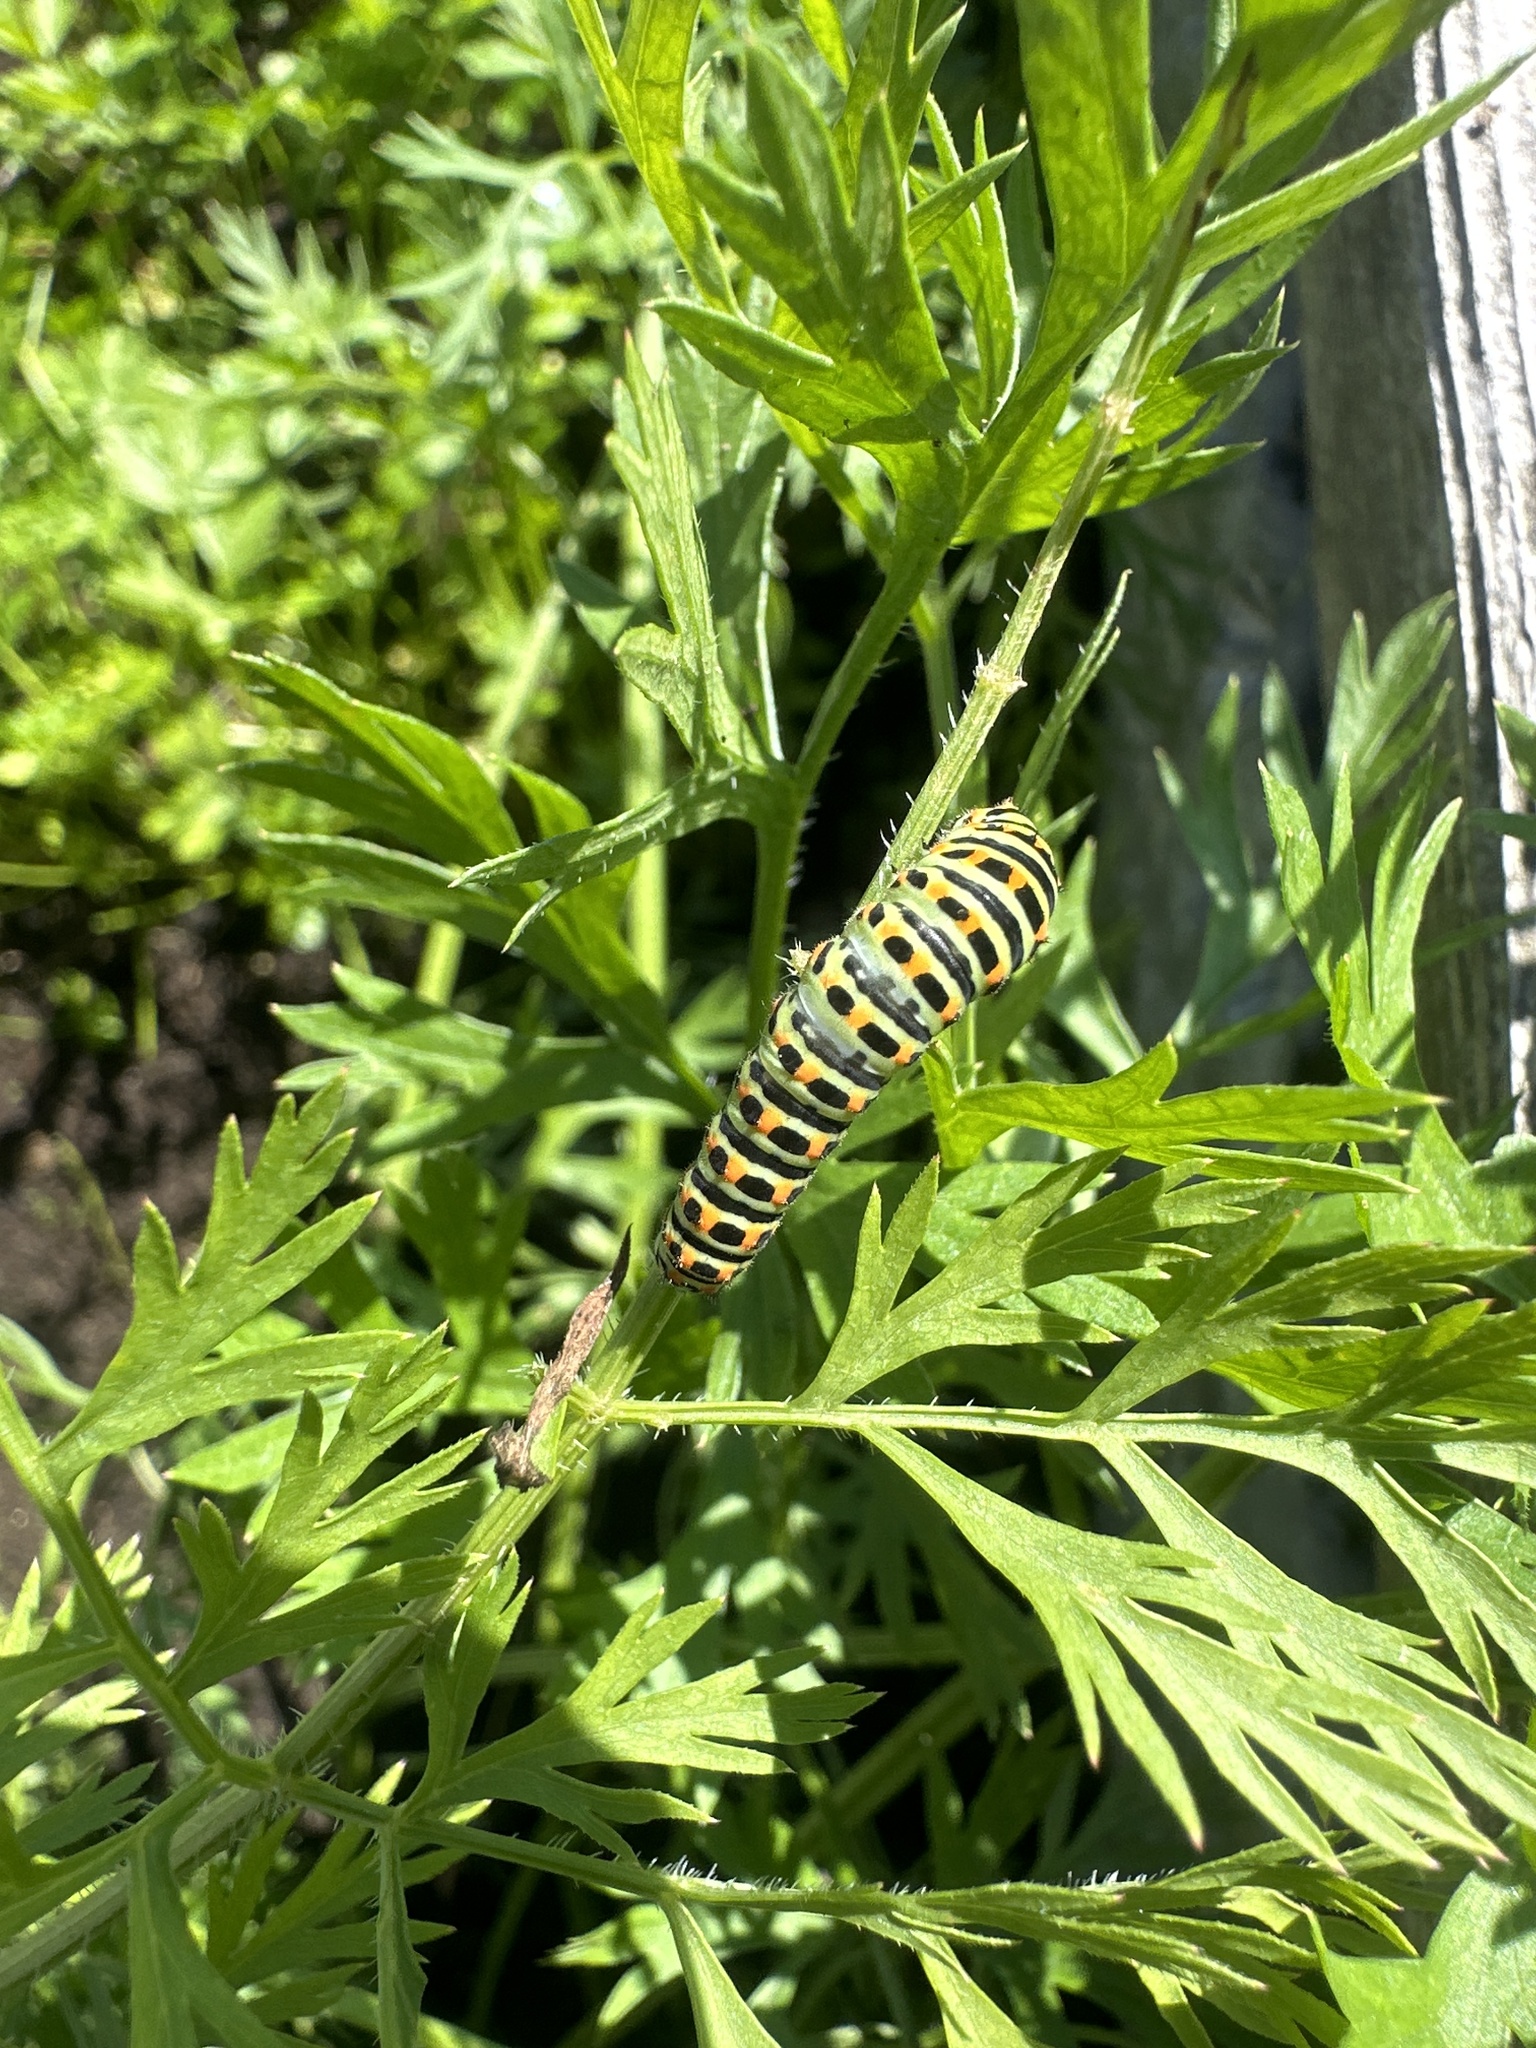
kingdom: Animalia
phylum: Arthropoda
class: Insecta
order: Lepidoptera
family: Papilionidae
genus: Papilio
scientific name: Papilio machaon
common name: Swallowtail
